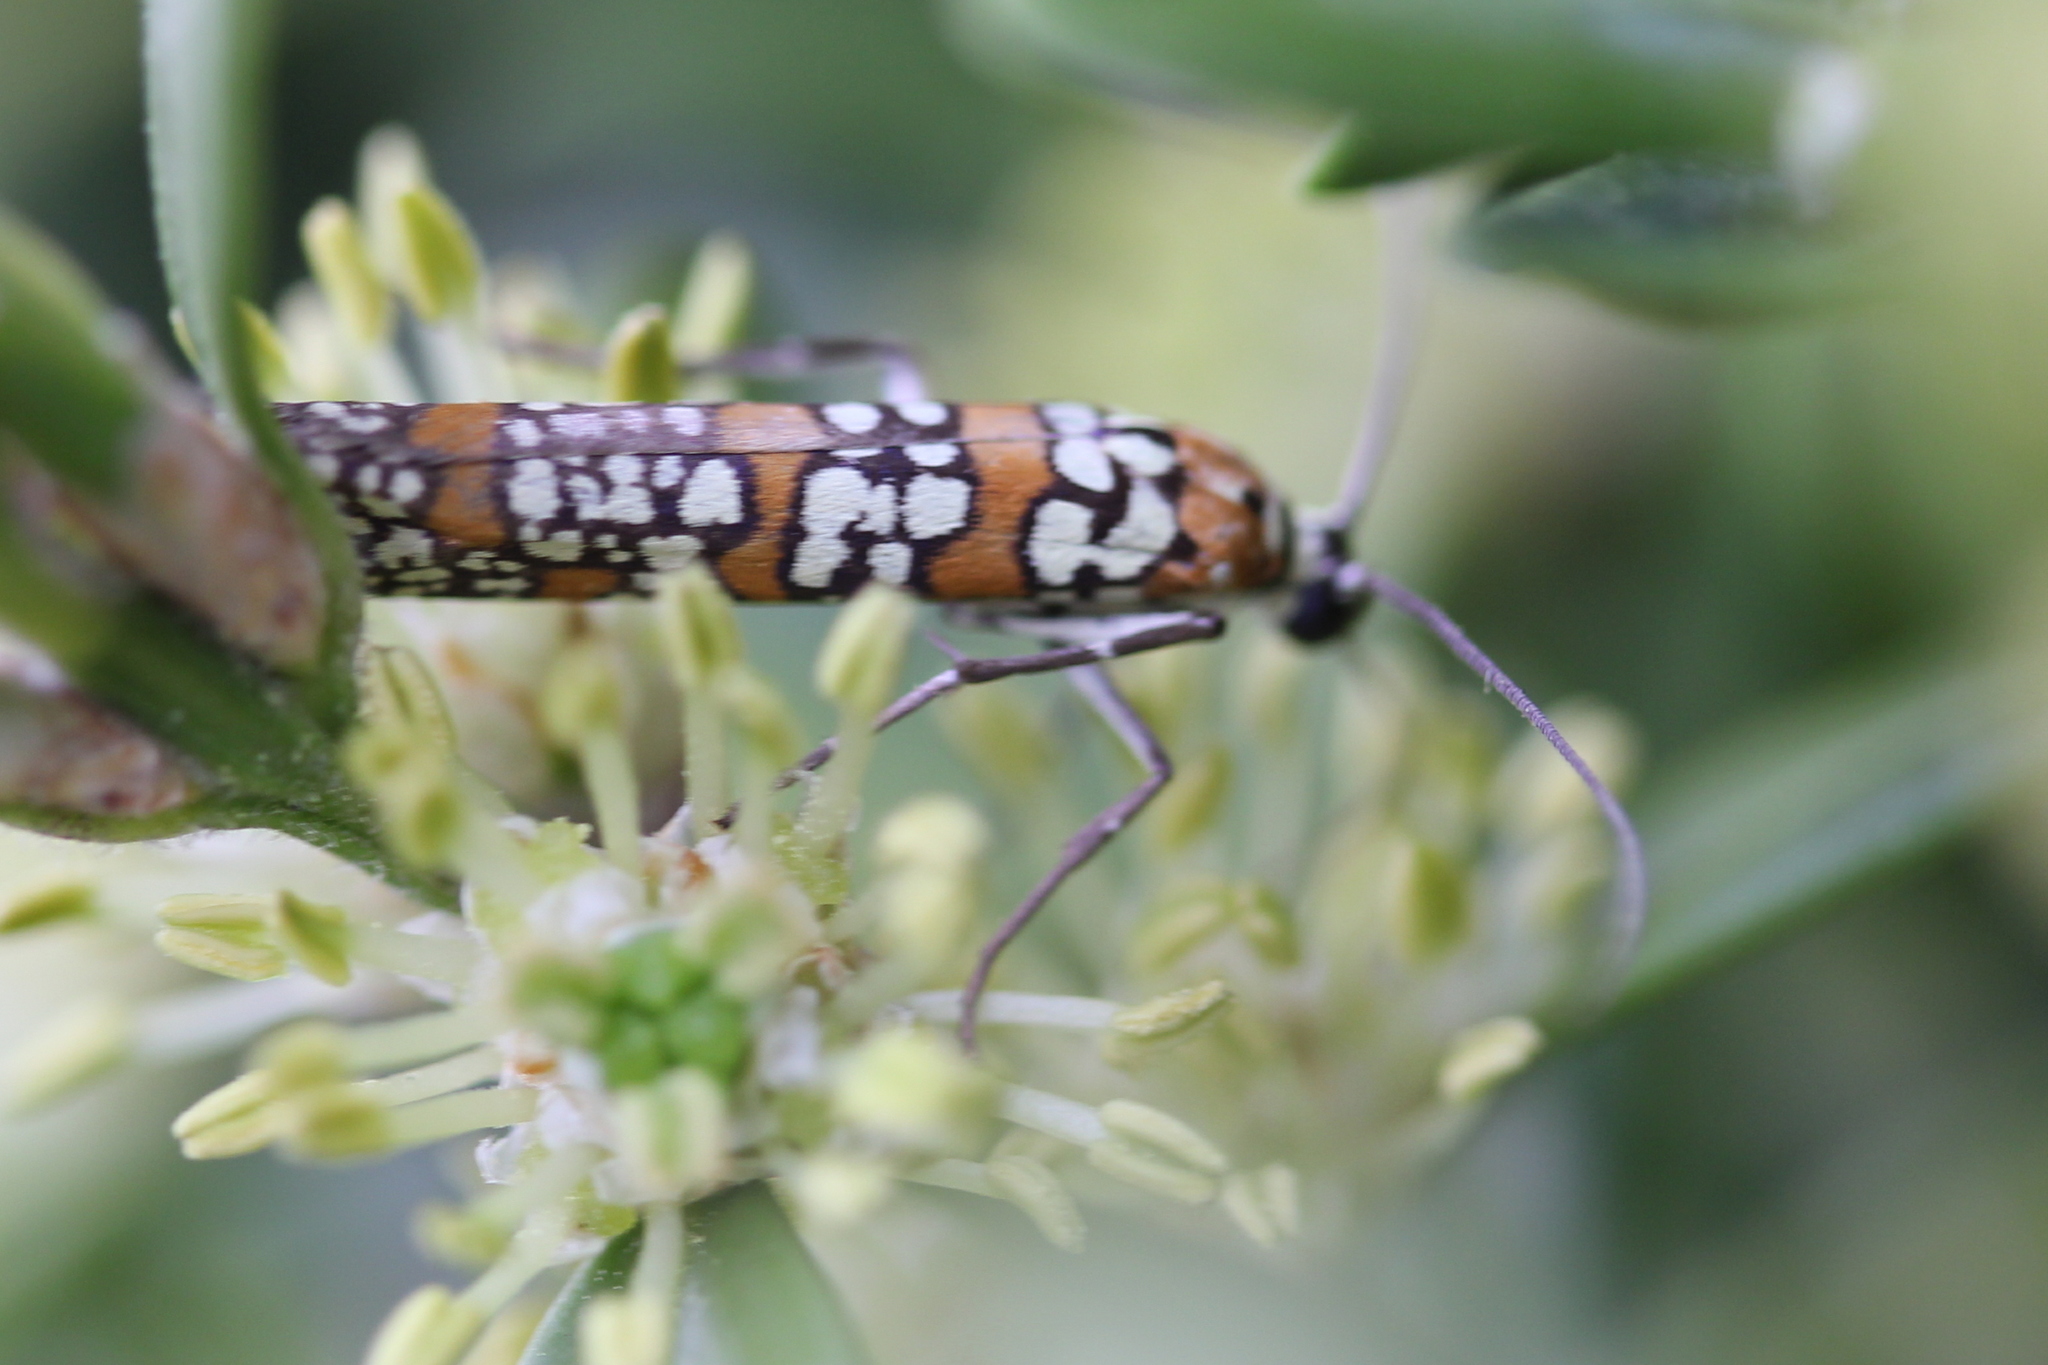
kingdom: Animalia
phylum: Arthropoda
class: Insecta
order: Lepidoptera
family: Attevidae
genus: Atteva
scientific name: Atteva punctella
